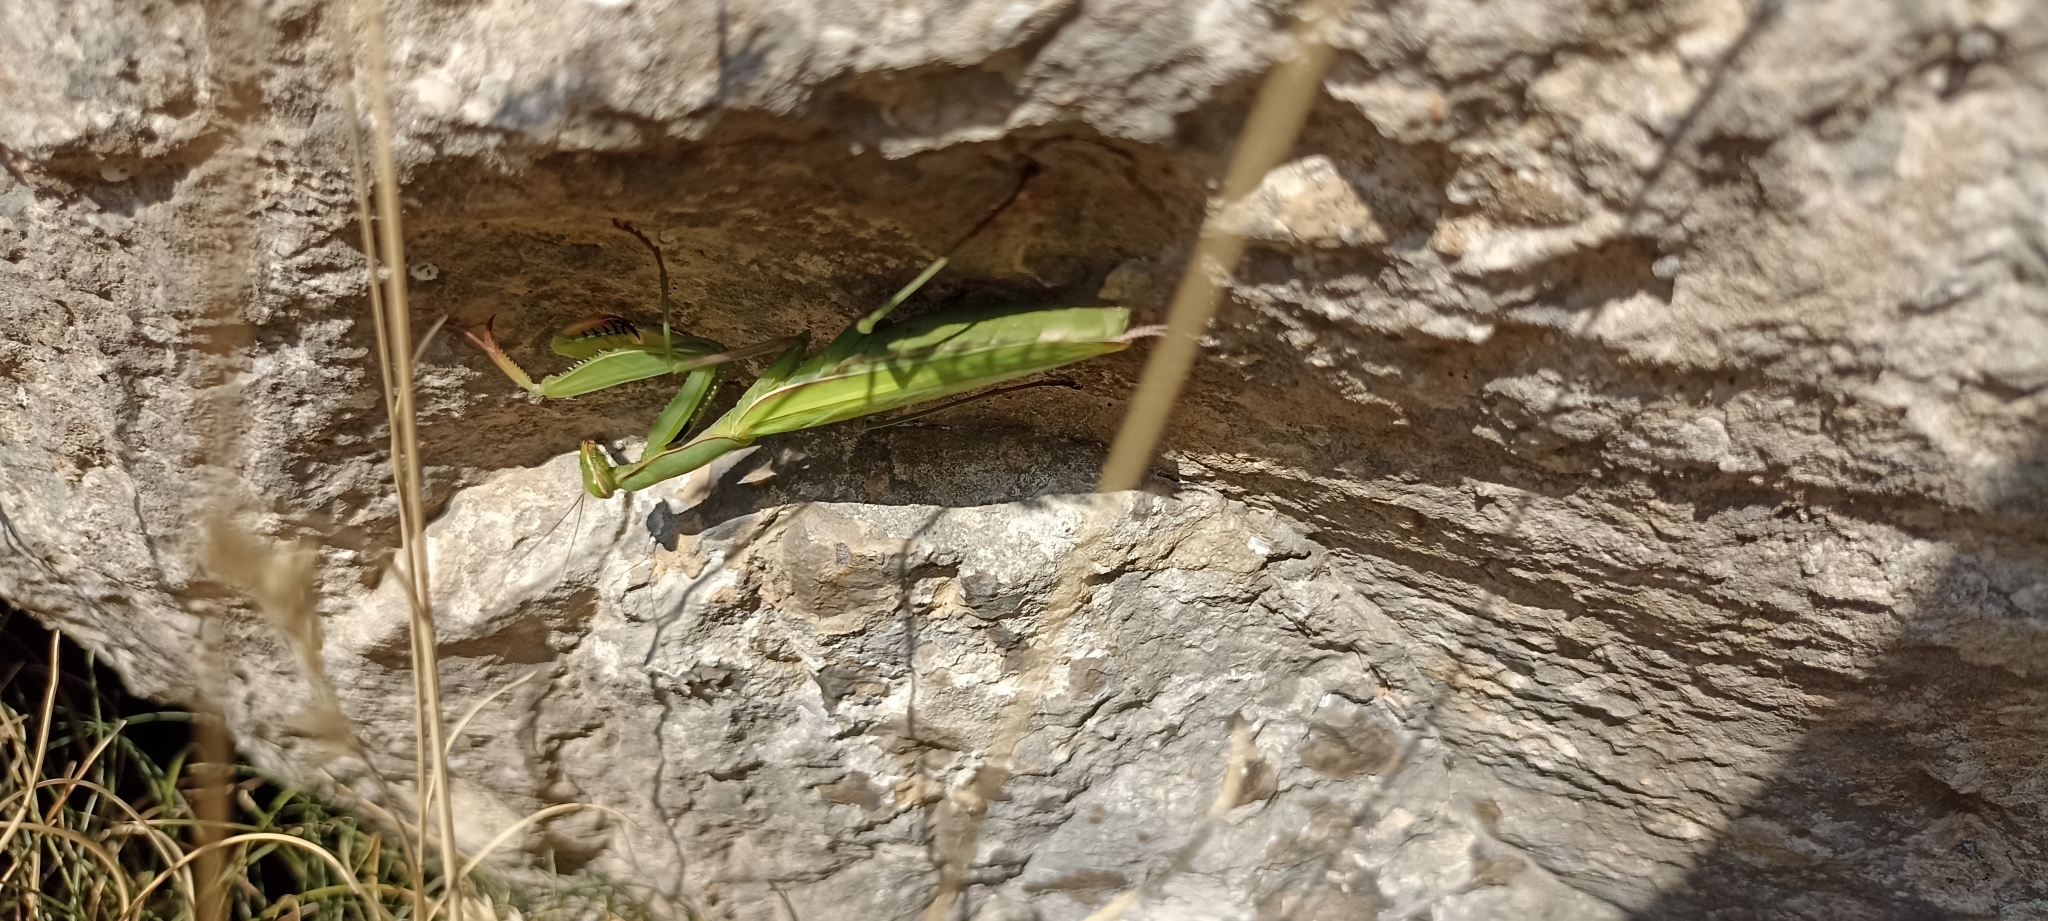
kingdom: Animalia
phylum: Arthropoda
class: Insecta
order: Mantodea
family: Mantidae
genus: Mantis
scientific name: Mantis religiosa
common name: Praying mantis
